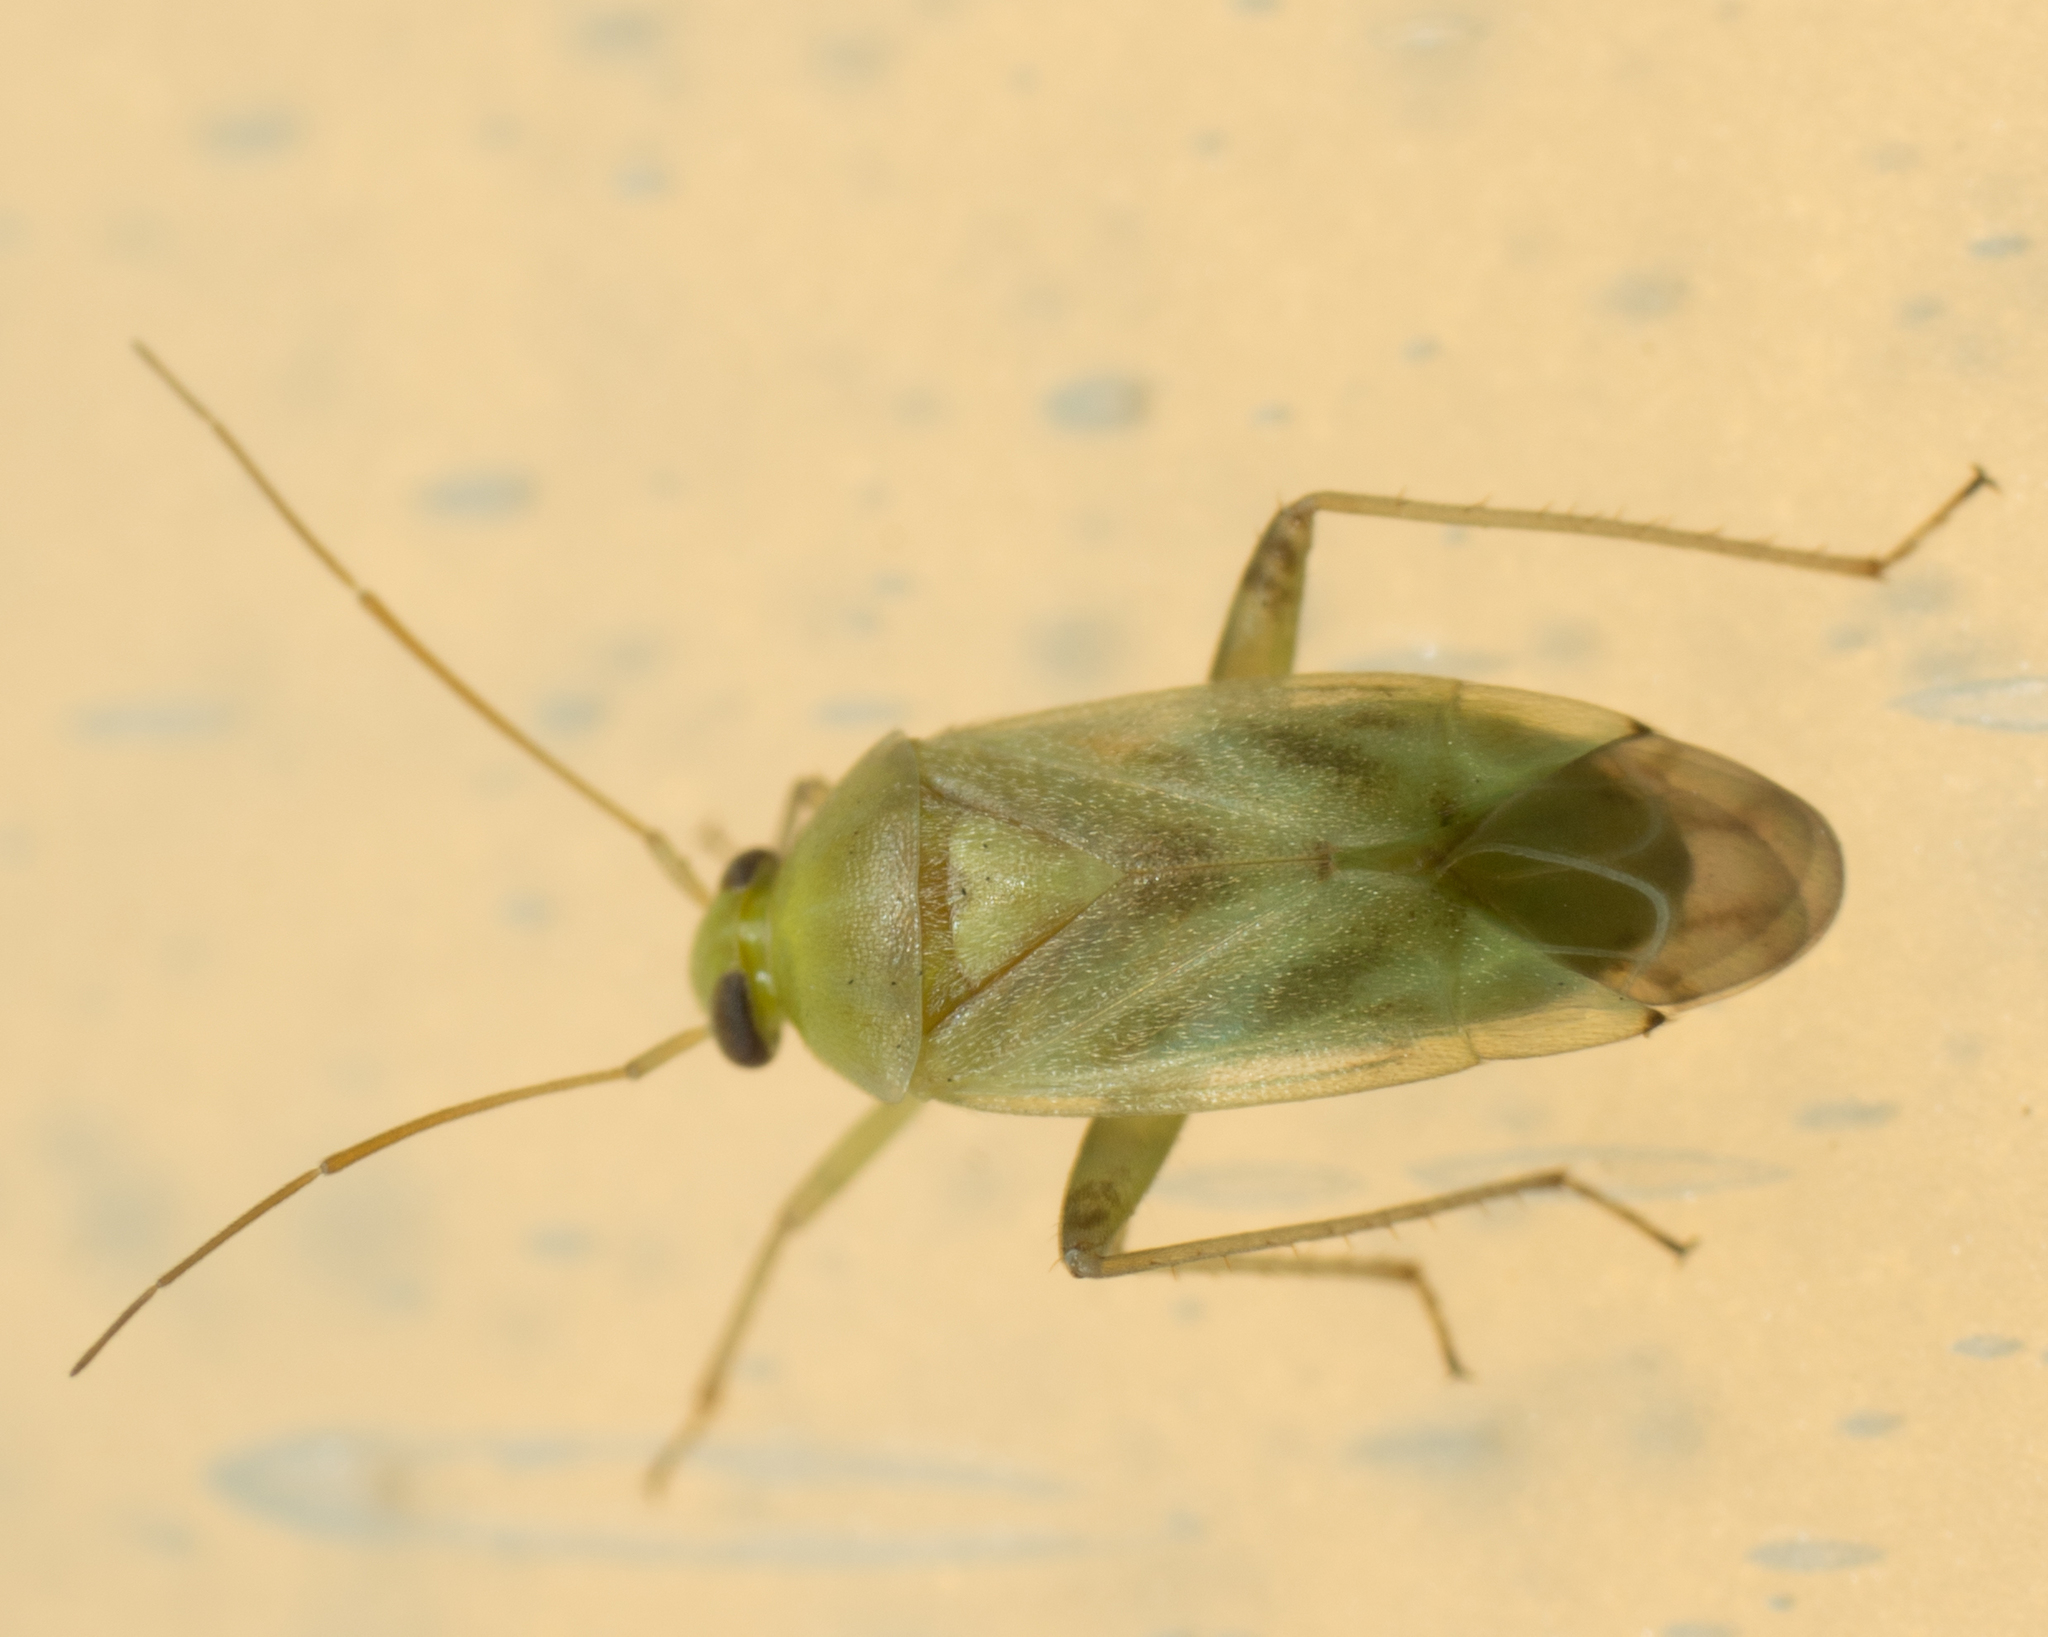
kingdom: Animalia
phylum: Arthropoda
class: Insecta
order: Hemiptera
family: Miridae
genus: Taylorilygus
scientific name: Taylorilygus apicalis
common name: Plant bug
